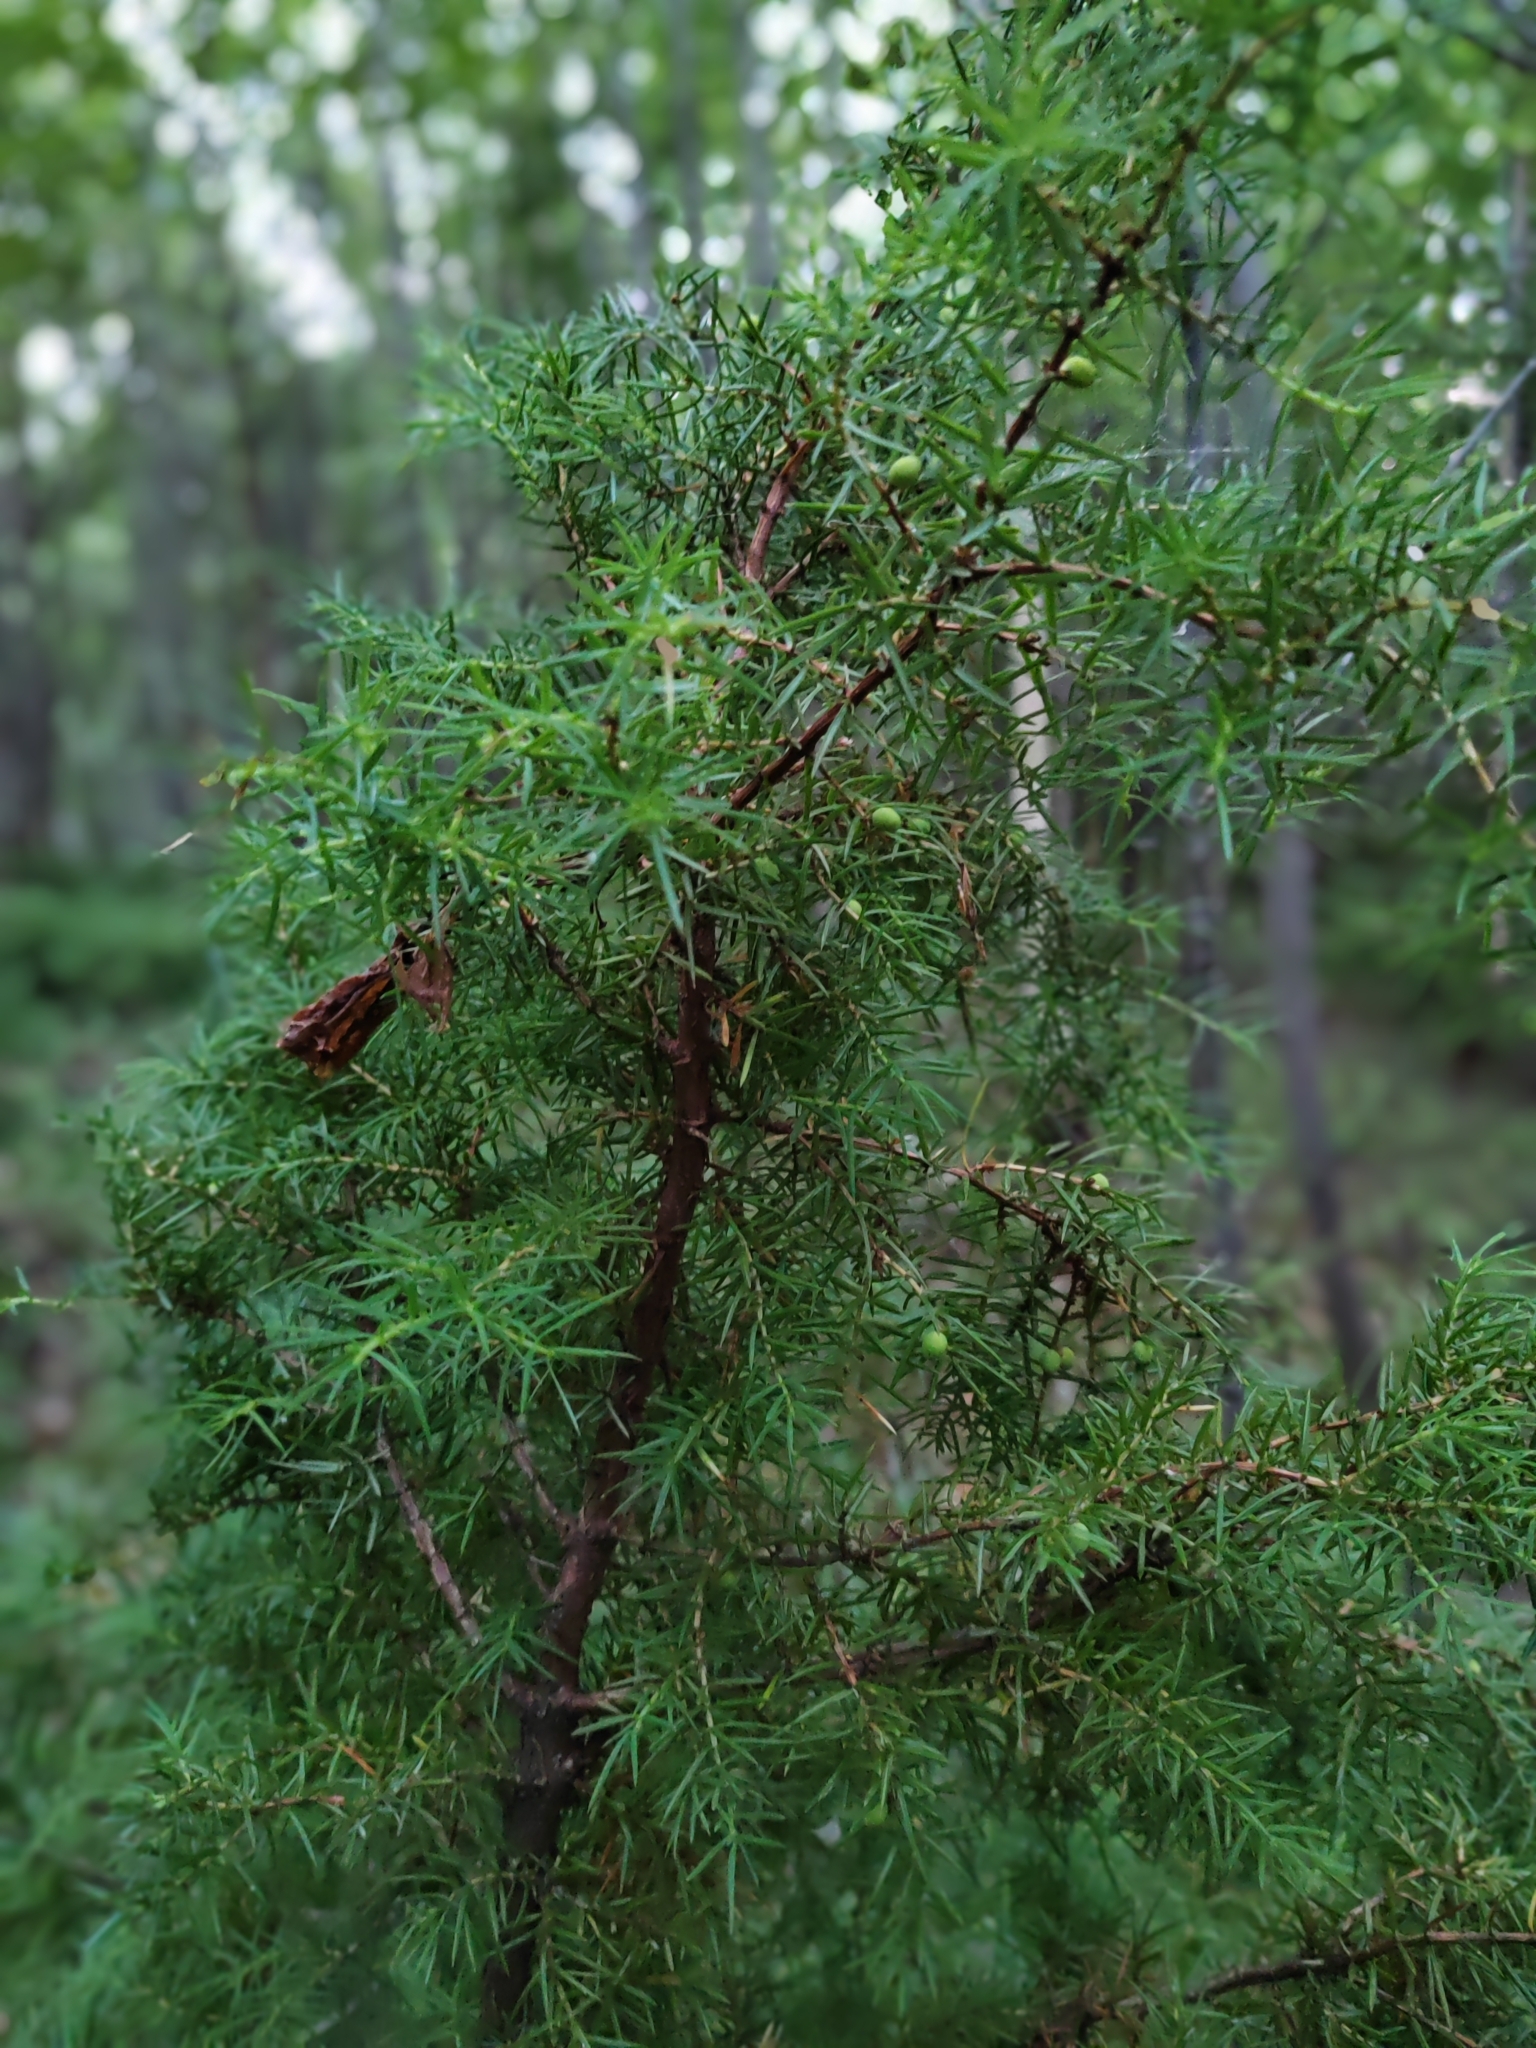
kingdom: Plantae
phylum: Tracheophyta
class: Pinopsida
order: Pinales
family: Cupressaceae
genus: Juniperus
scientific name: Juniperus communis
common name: Common juniper
